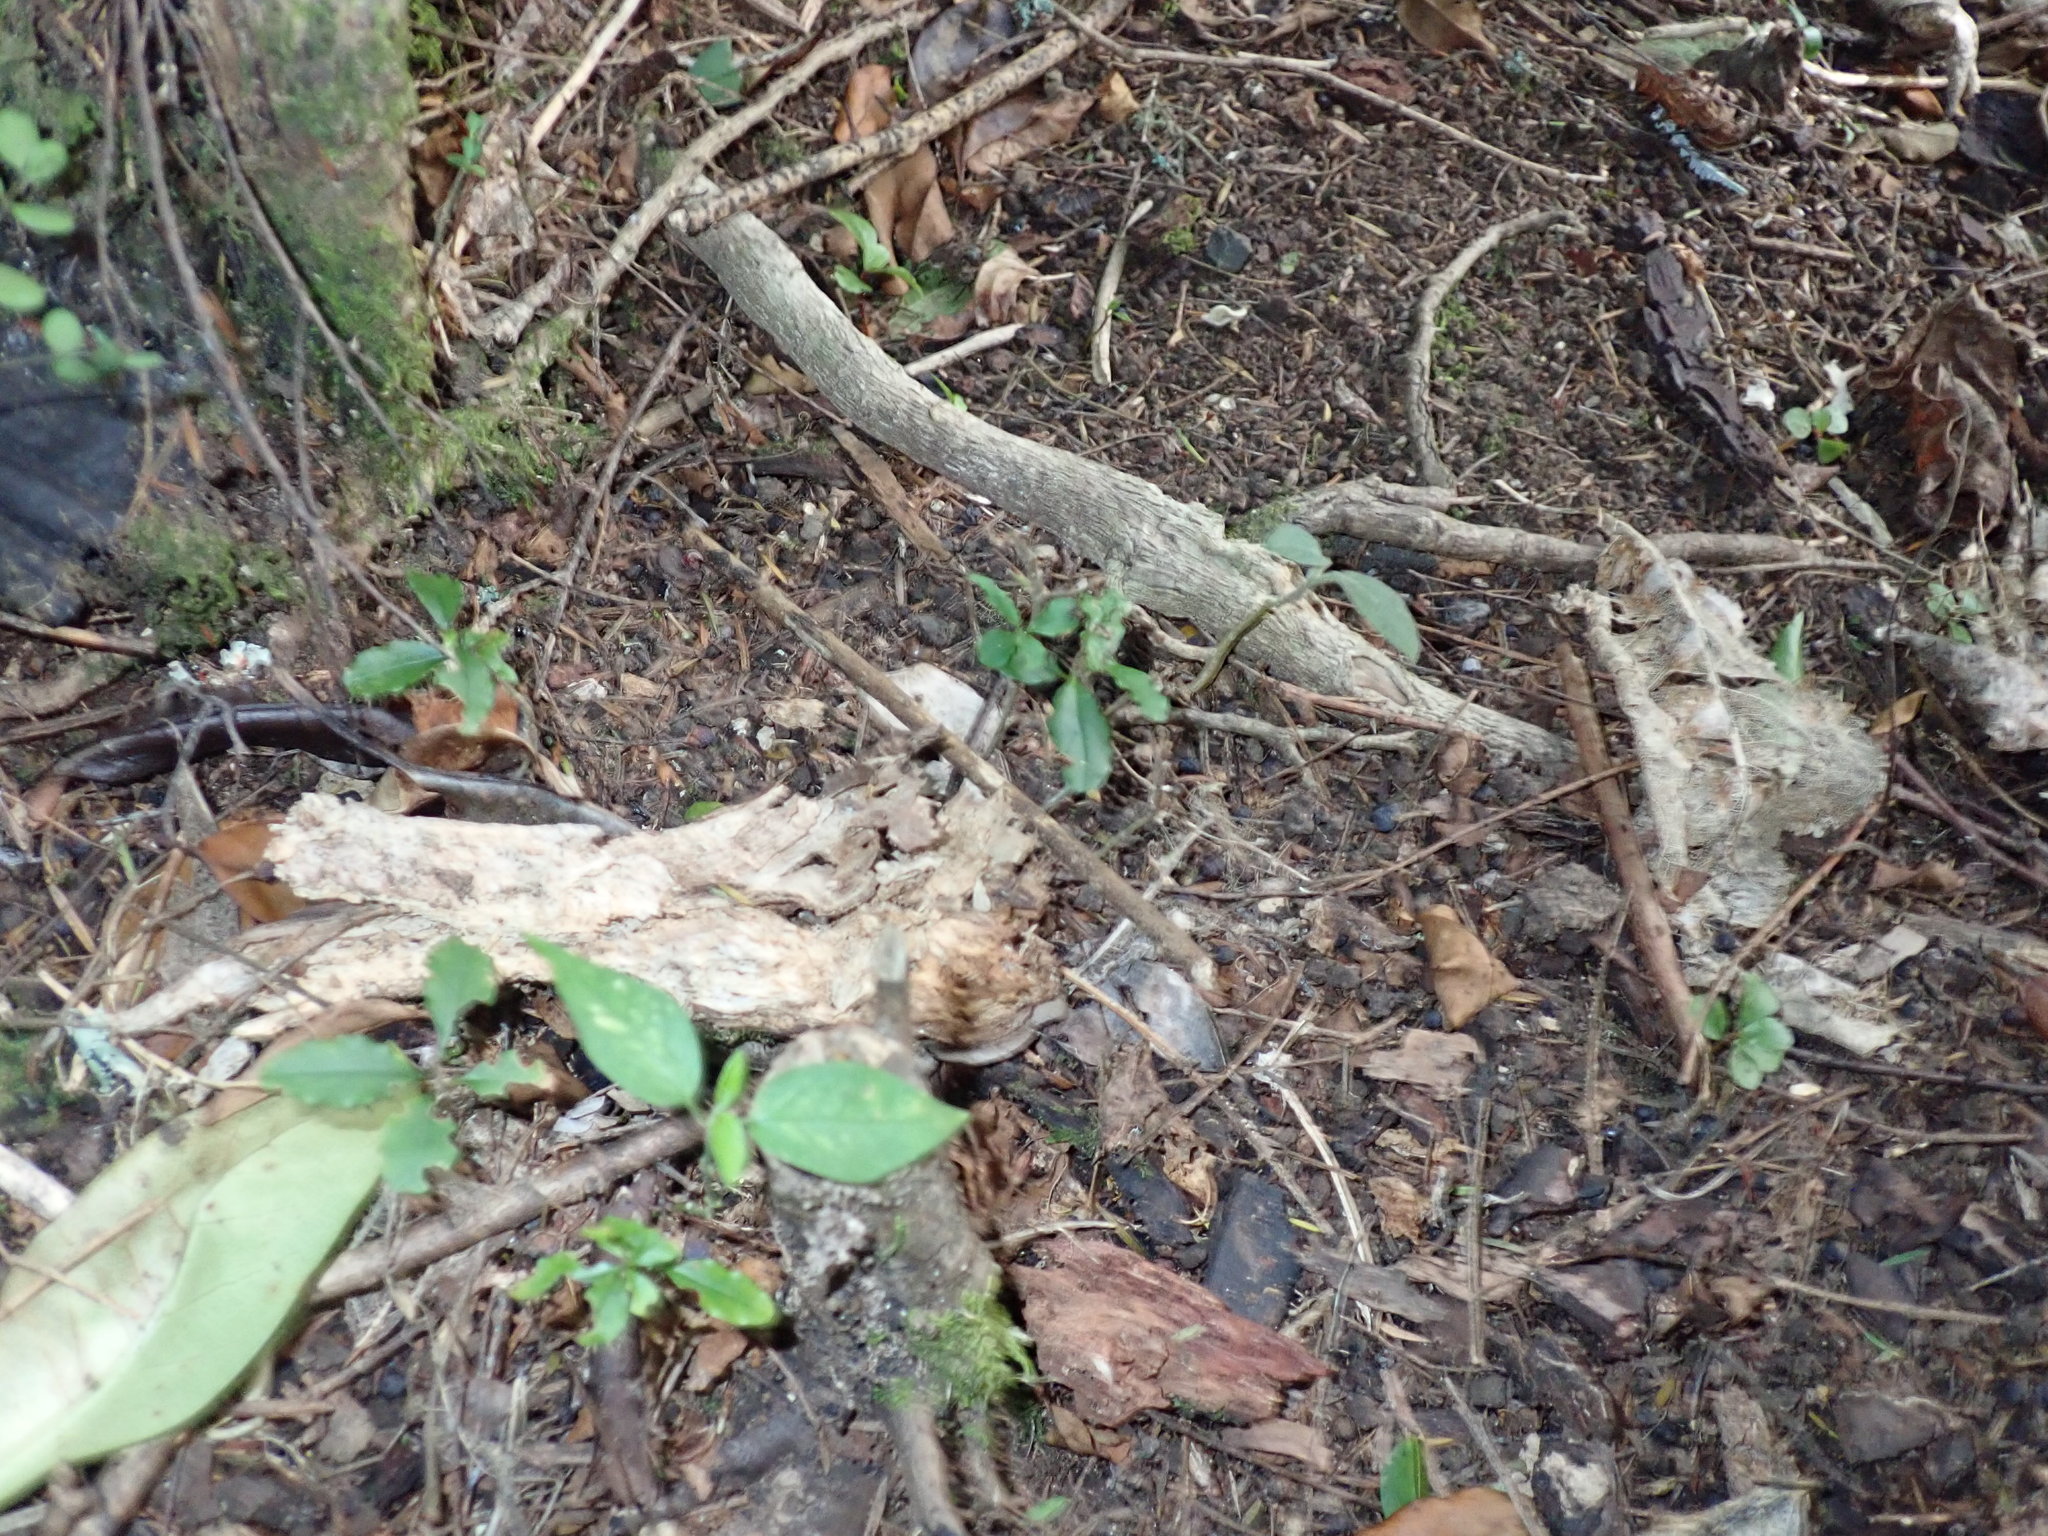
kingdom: Plantae
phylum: Tracheophyta
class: Magnoliopsida
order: Lamiales
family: Oleaceae
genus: Ligustrum
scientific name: Ligustrum sinense
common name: Chinese privet
